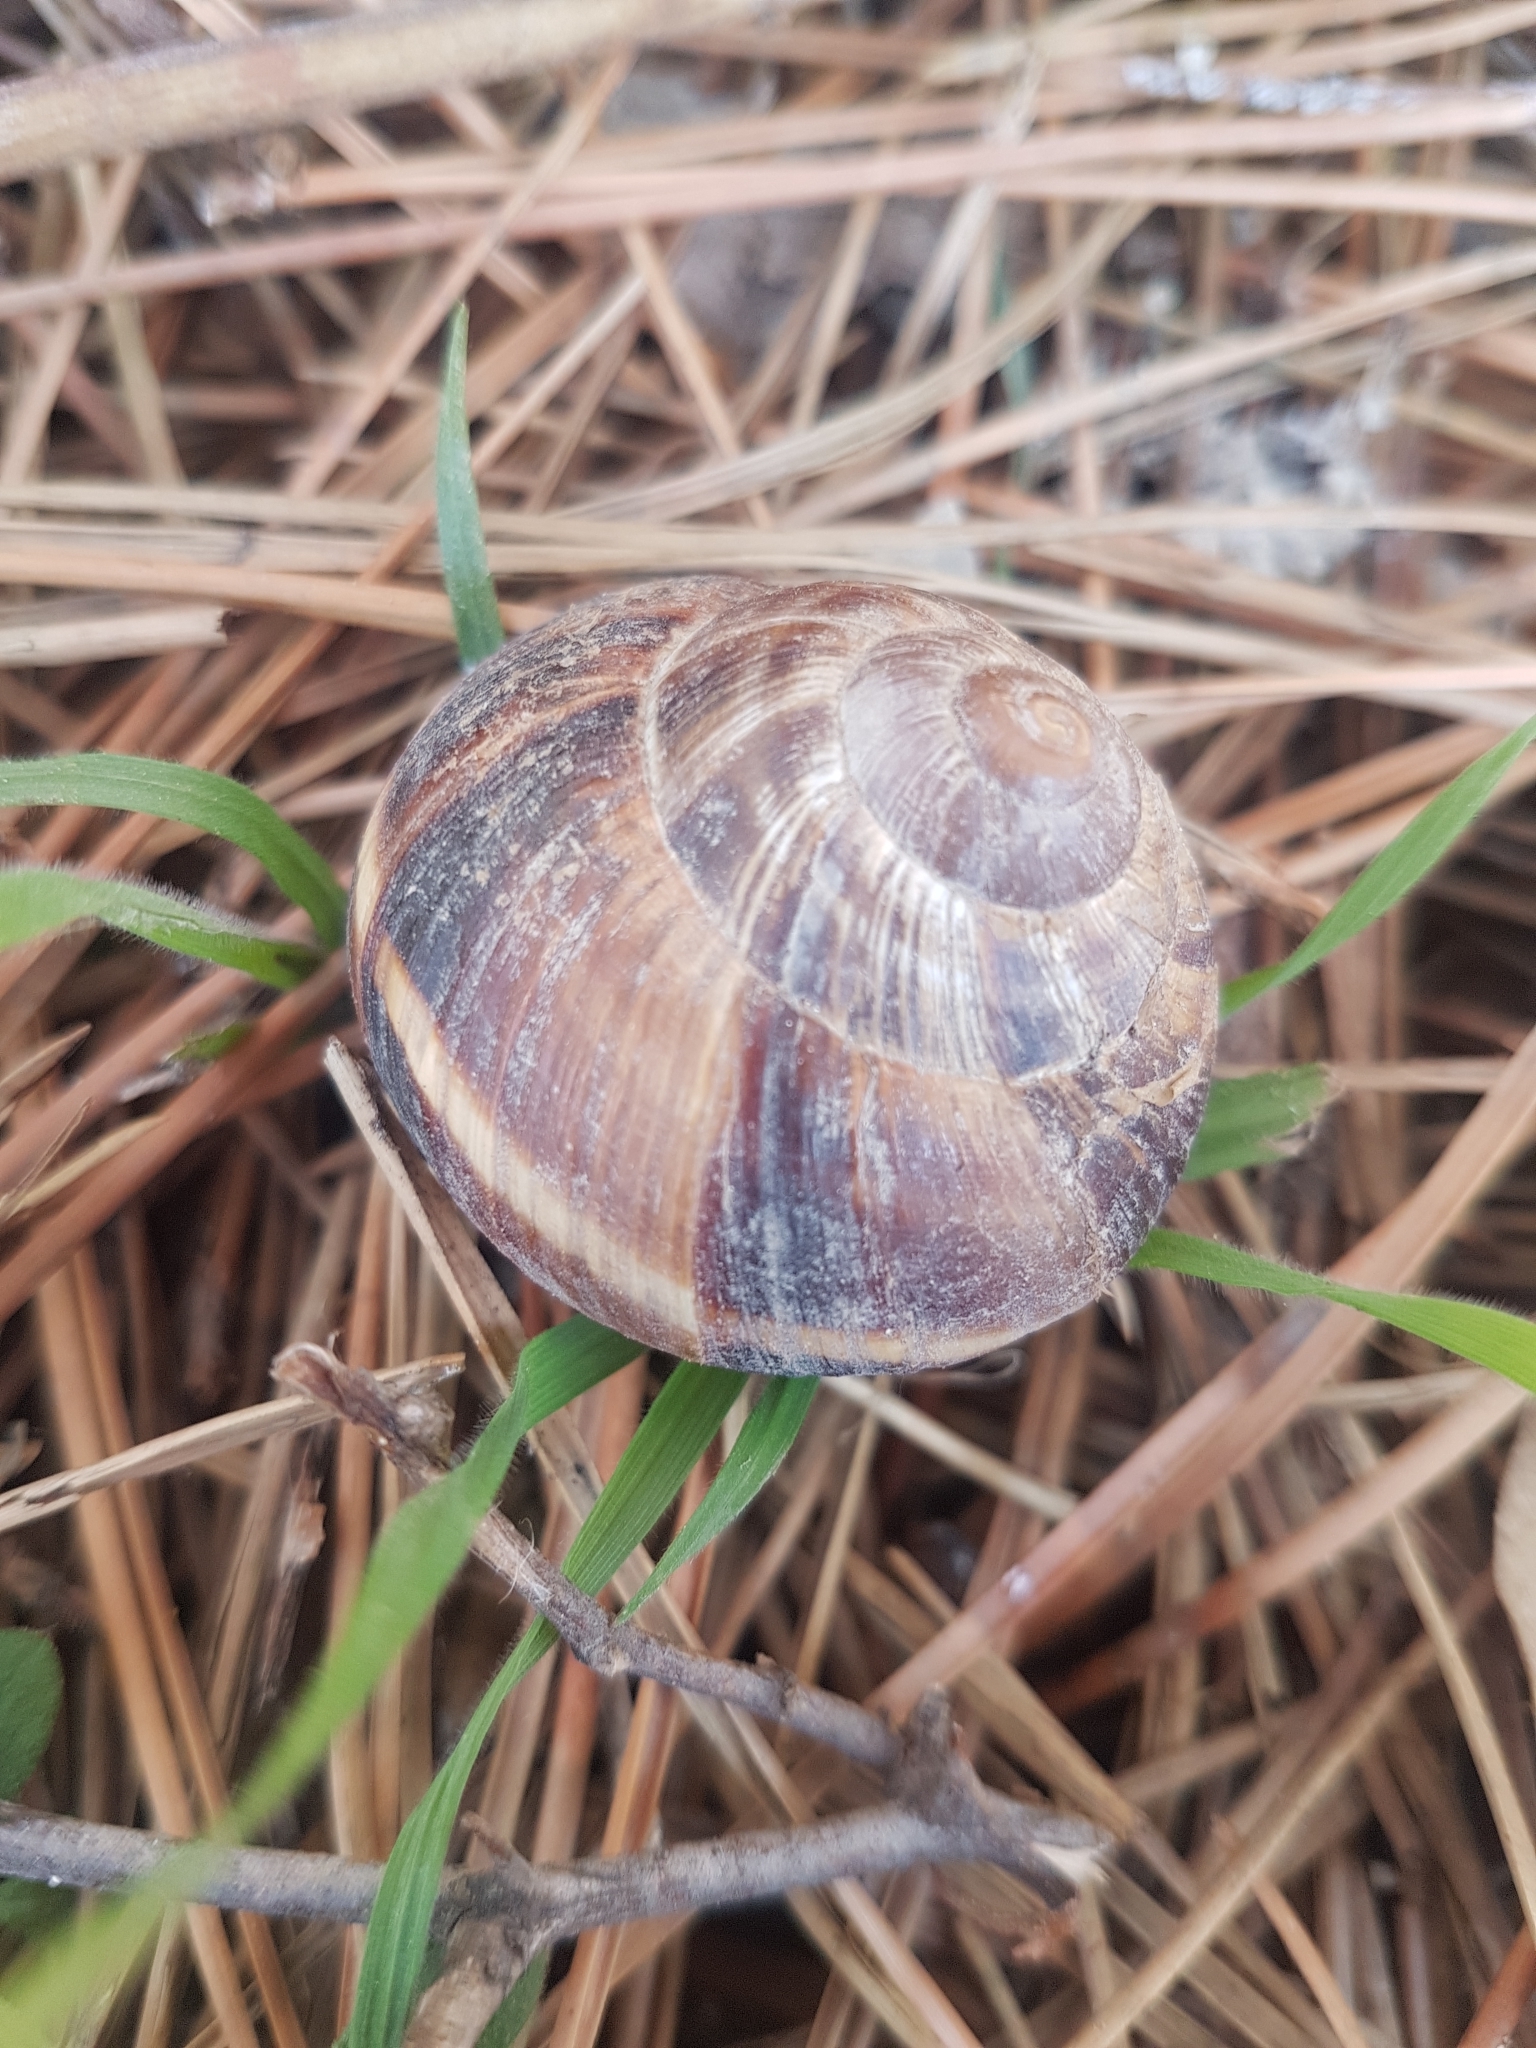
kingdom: Animalia
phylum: Mollusca
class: Gastropoda
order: Stylommatophora
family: Helicidae
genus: Helix
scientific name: Helix lucorum
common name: Turkish snail
